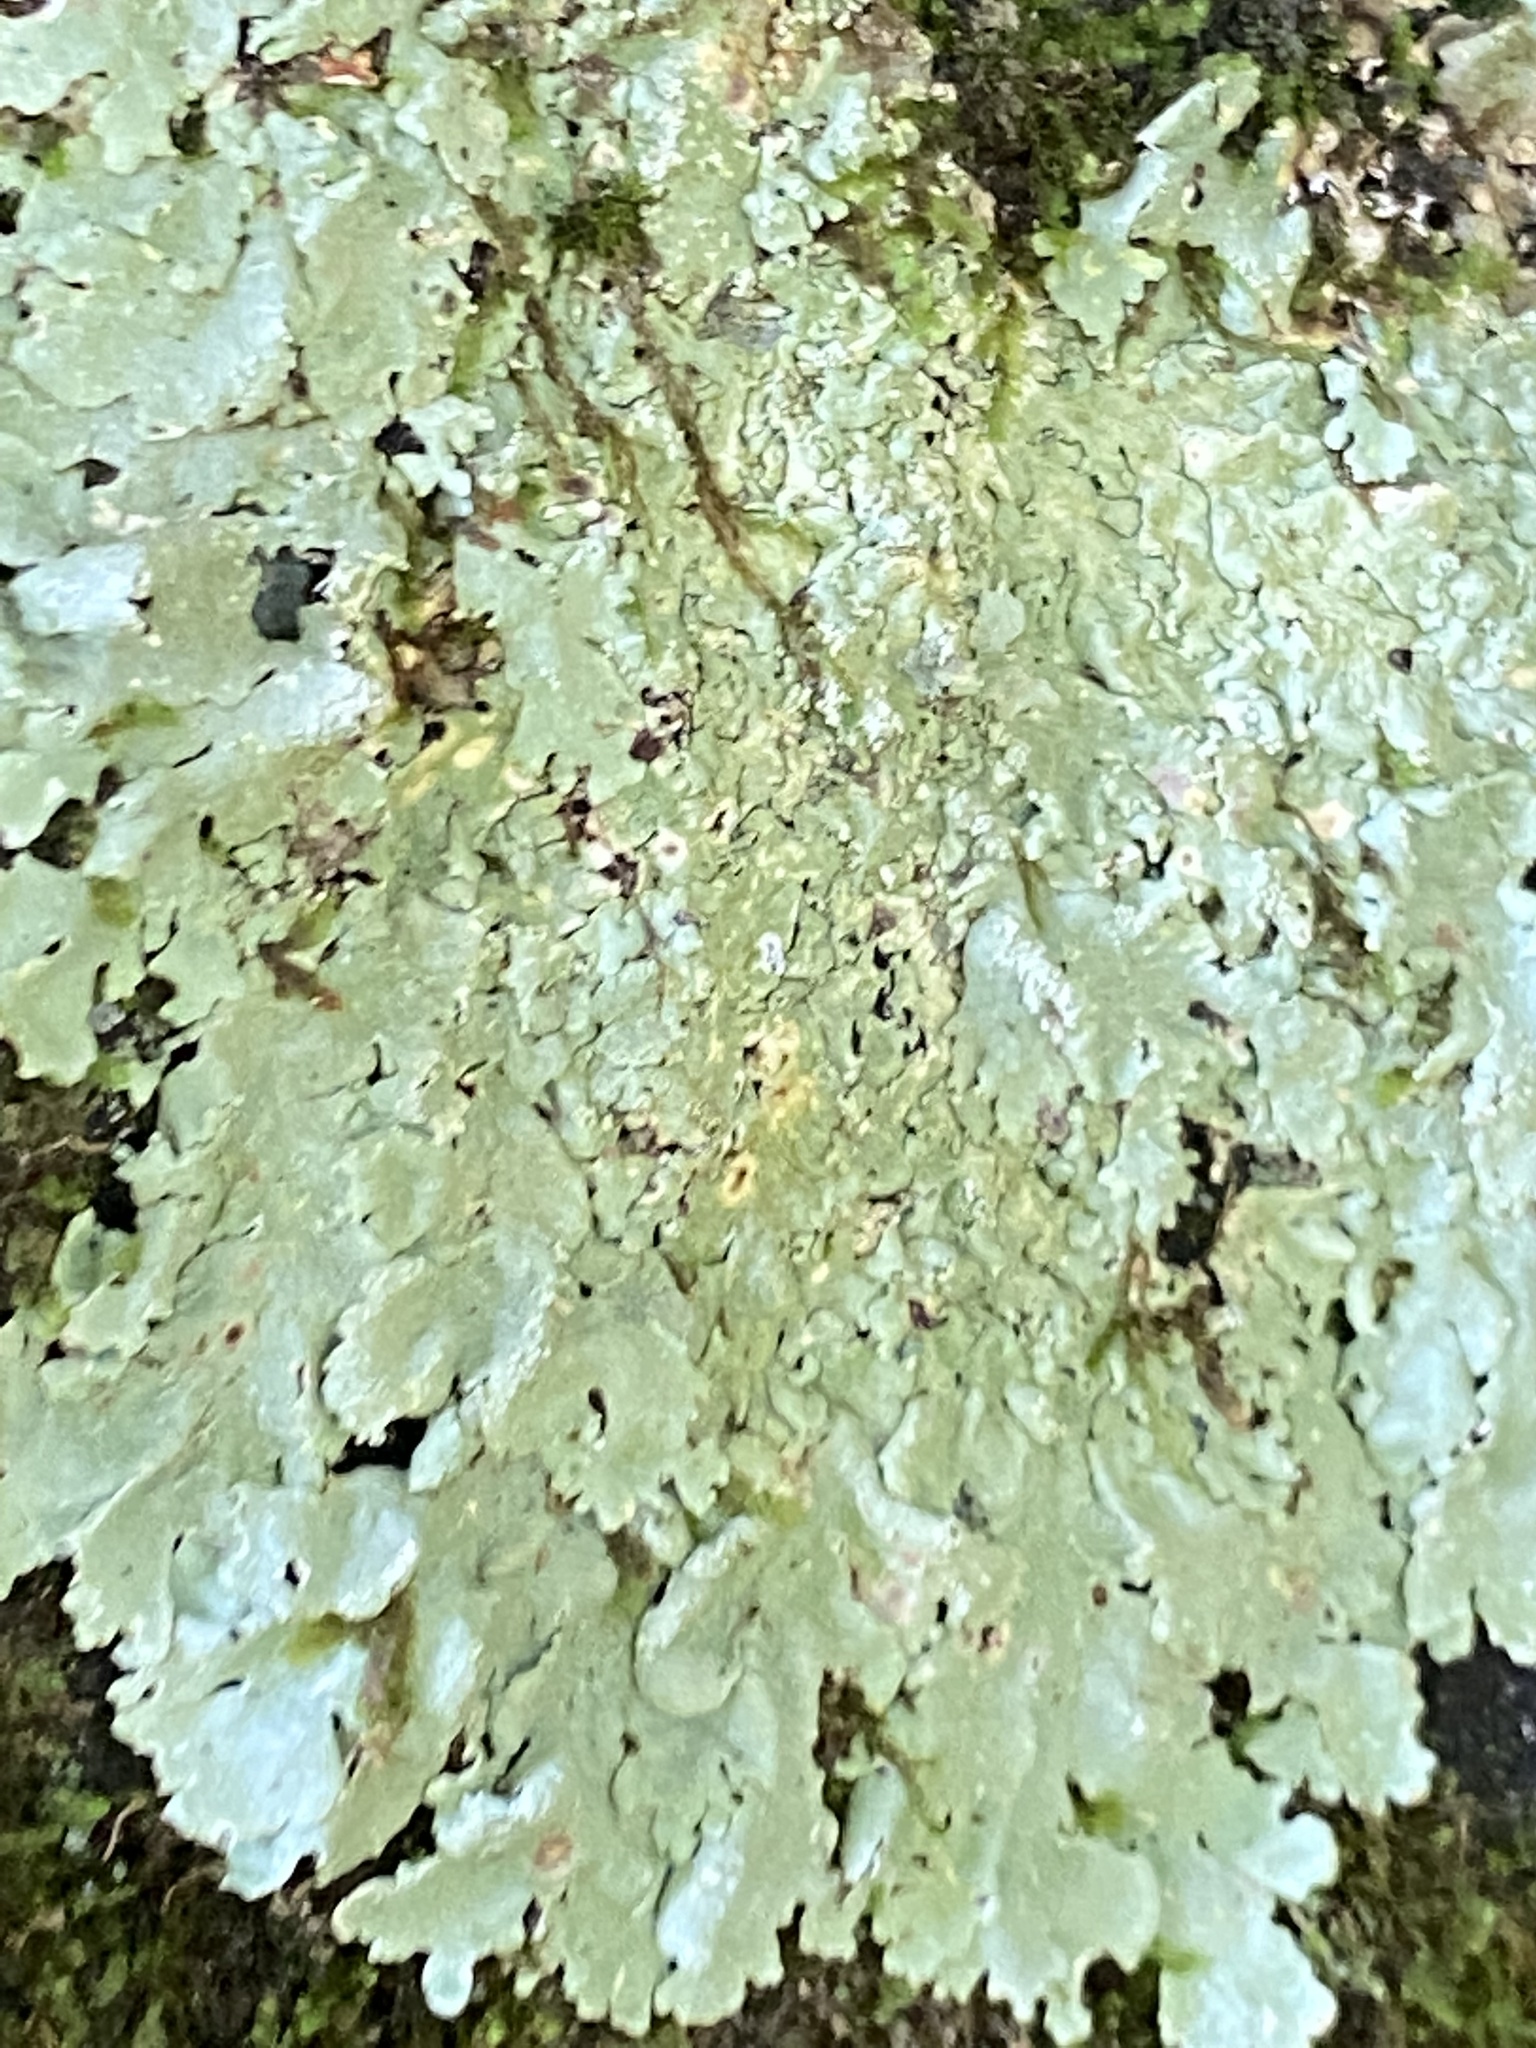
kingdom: Fungi
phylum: Ascomycota
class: Lecanoromycetes
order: Lecanorales
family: Parmeliaceae
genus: Flavoparmelia
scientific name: Flavoparmelia baltimorensis
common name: Rock greenshield
